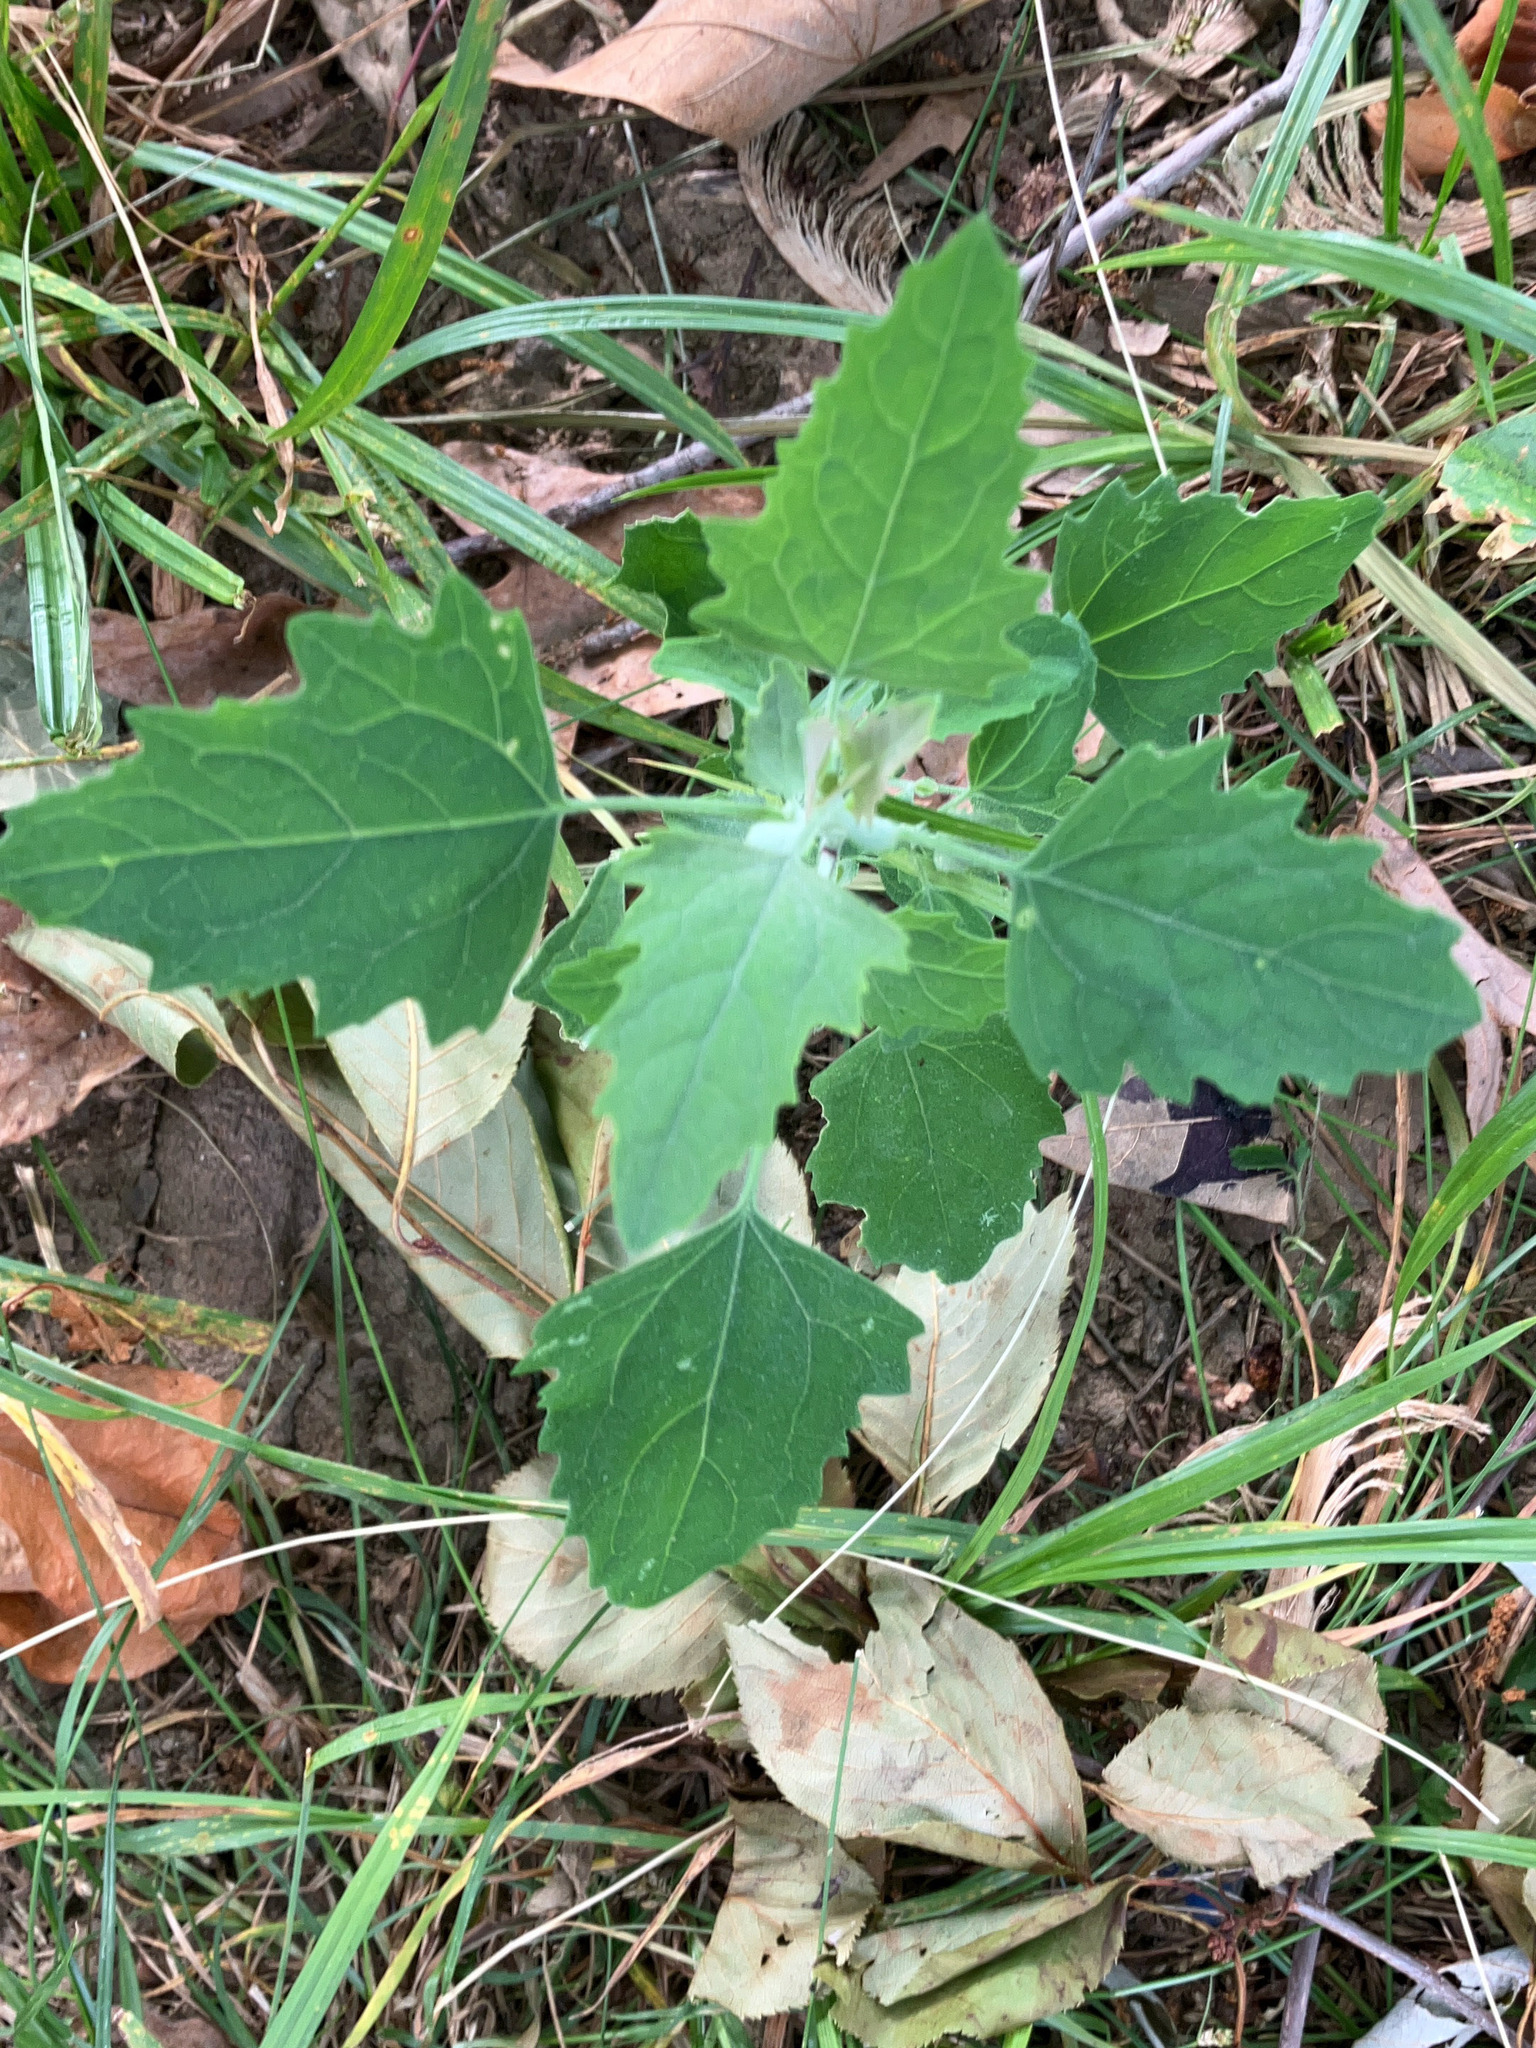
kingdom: Plantae
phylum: Tracheophyta
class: Magnoliopsida
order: Caryophyllales
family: Amaranthaceae
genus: Chenopodium
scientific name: Chenopodium album
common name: Fat-hen
